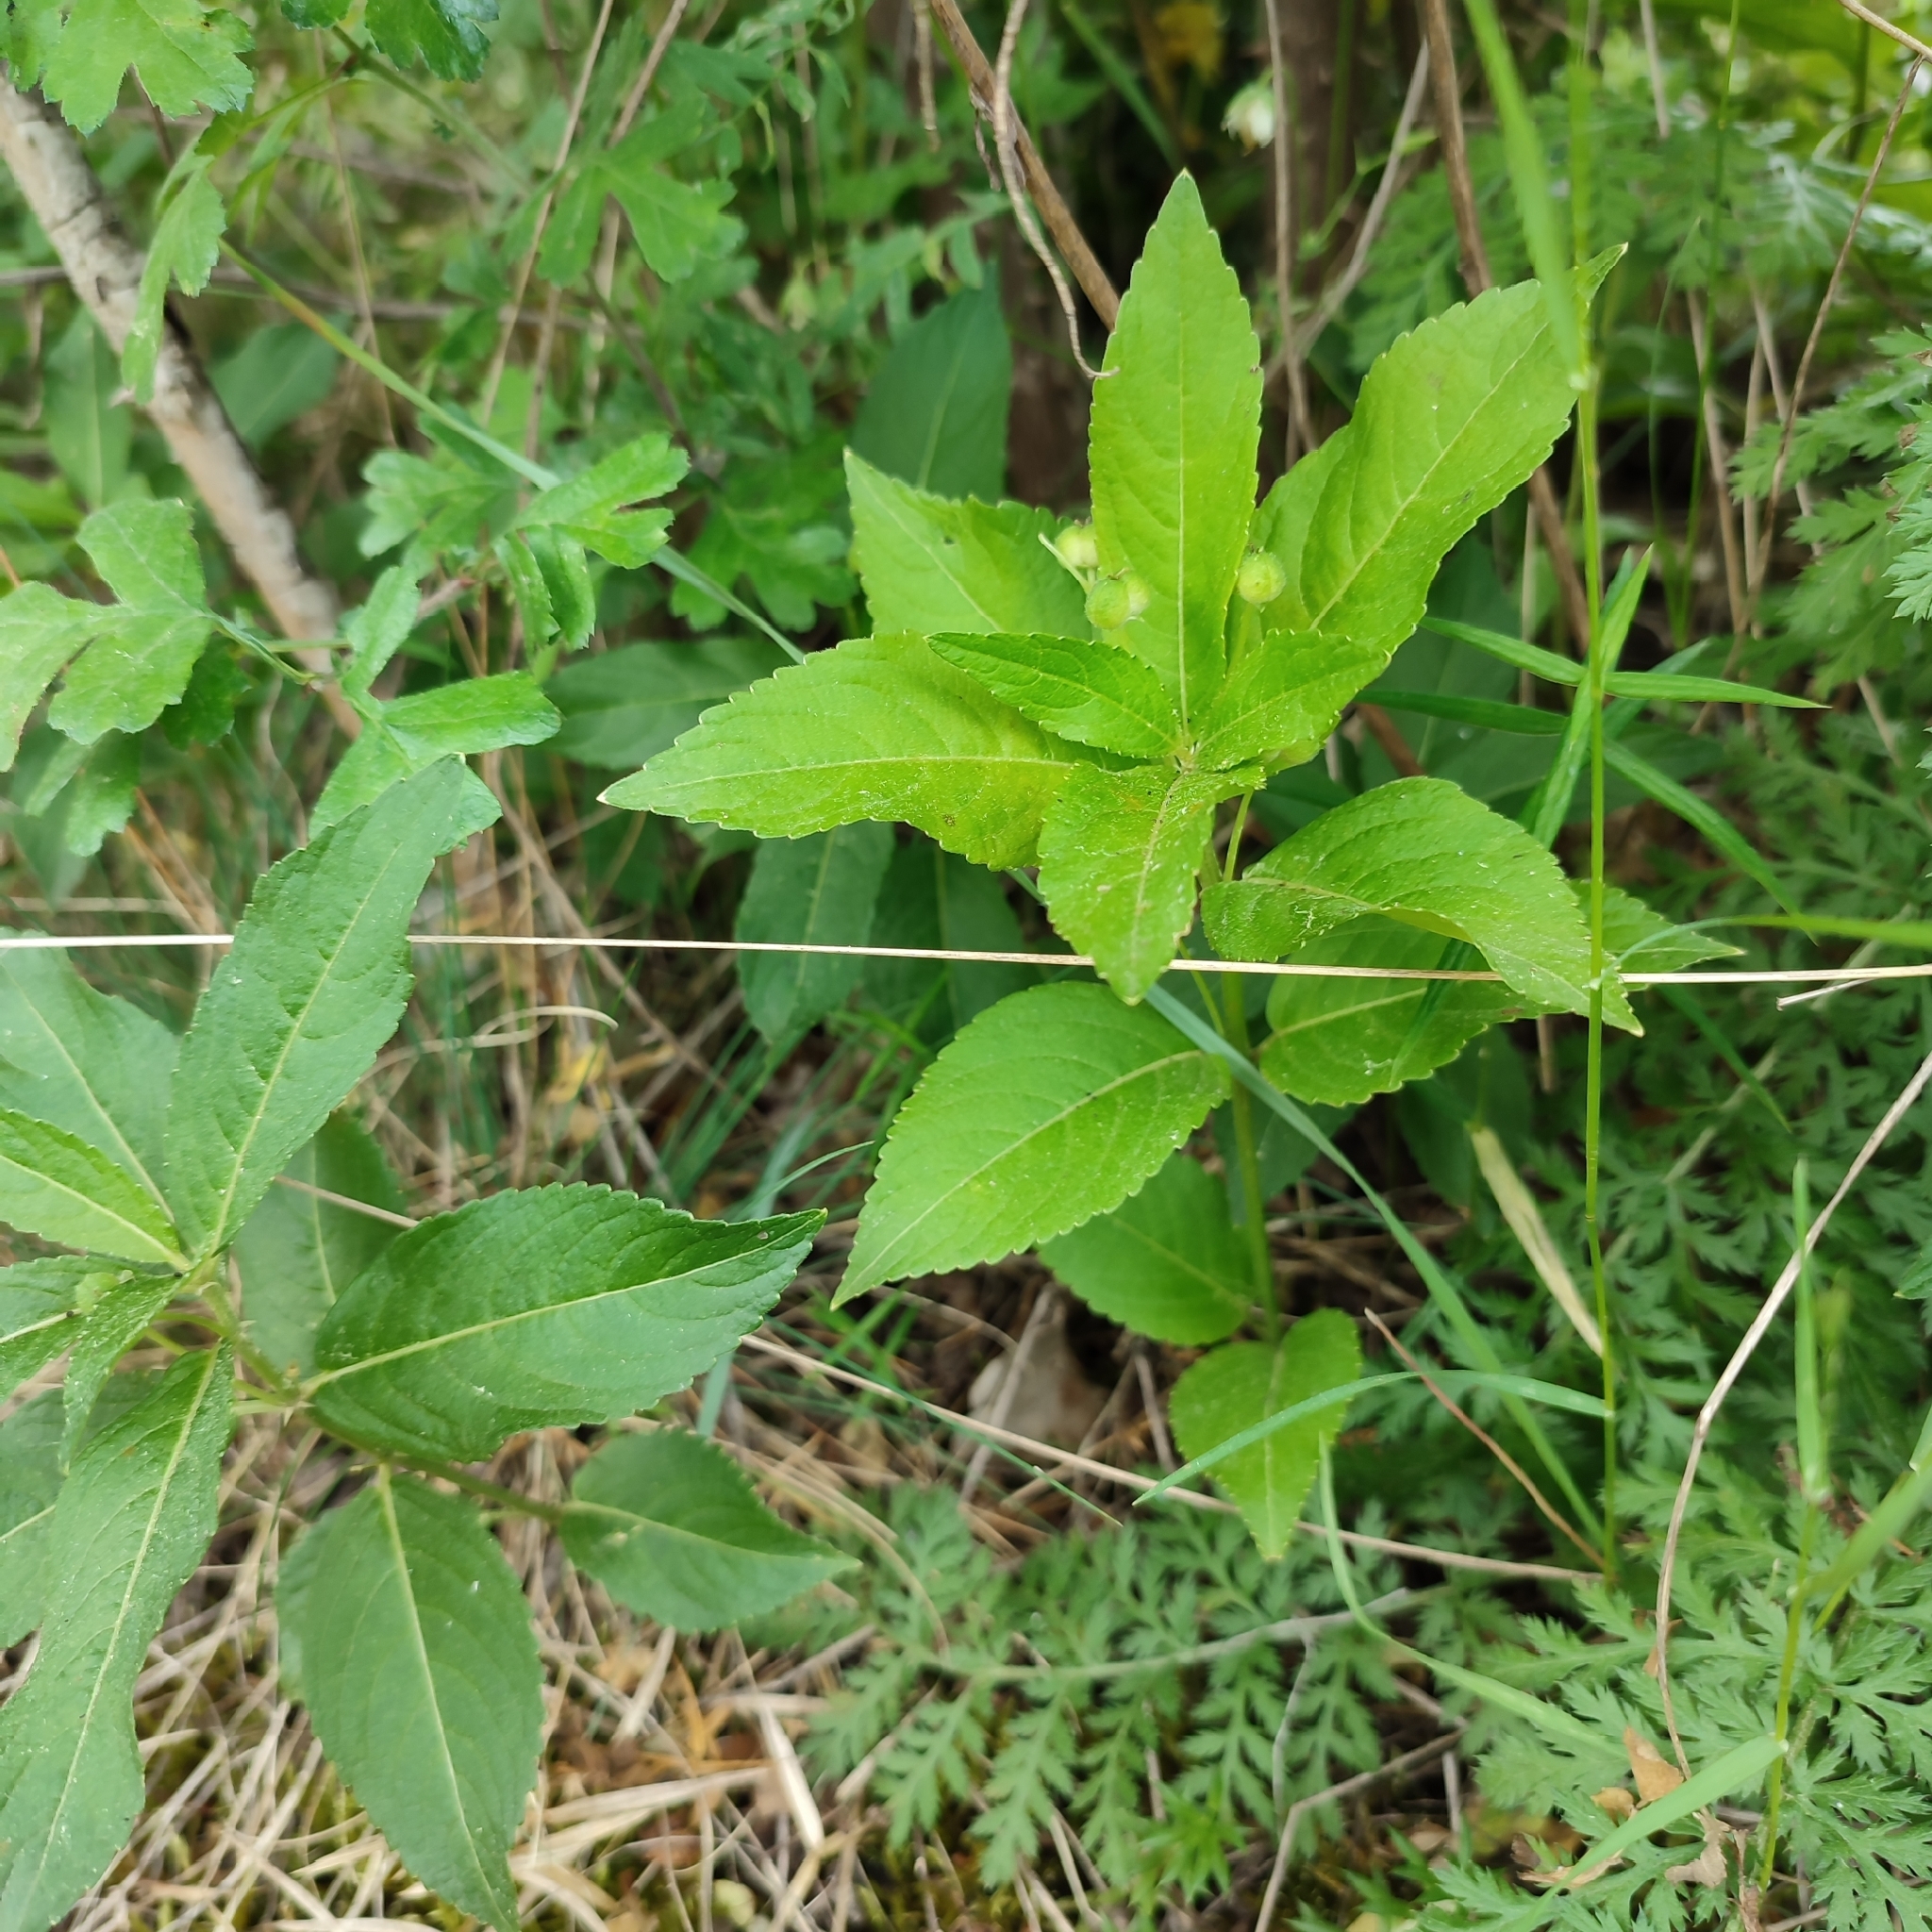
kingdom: Plantae
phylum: Tracheophyta
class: Magnoliopsida
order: Malpighiales
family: Euphorbiaceae
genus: Mercurialis
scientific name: Mercurialis perennis
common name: Dog mercury
